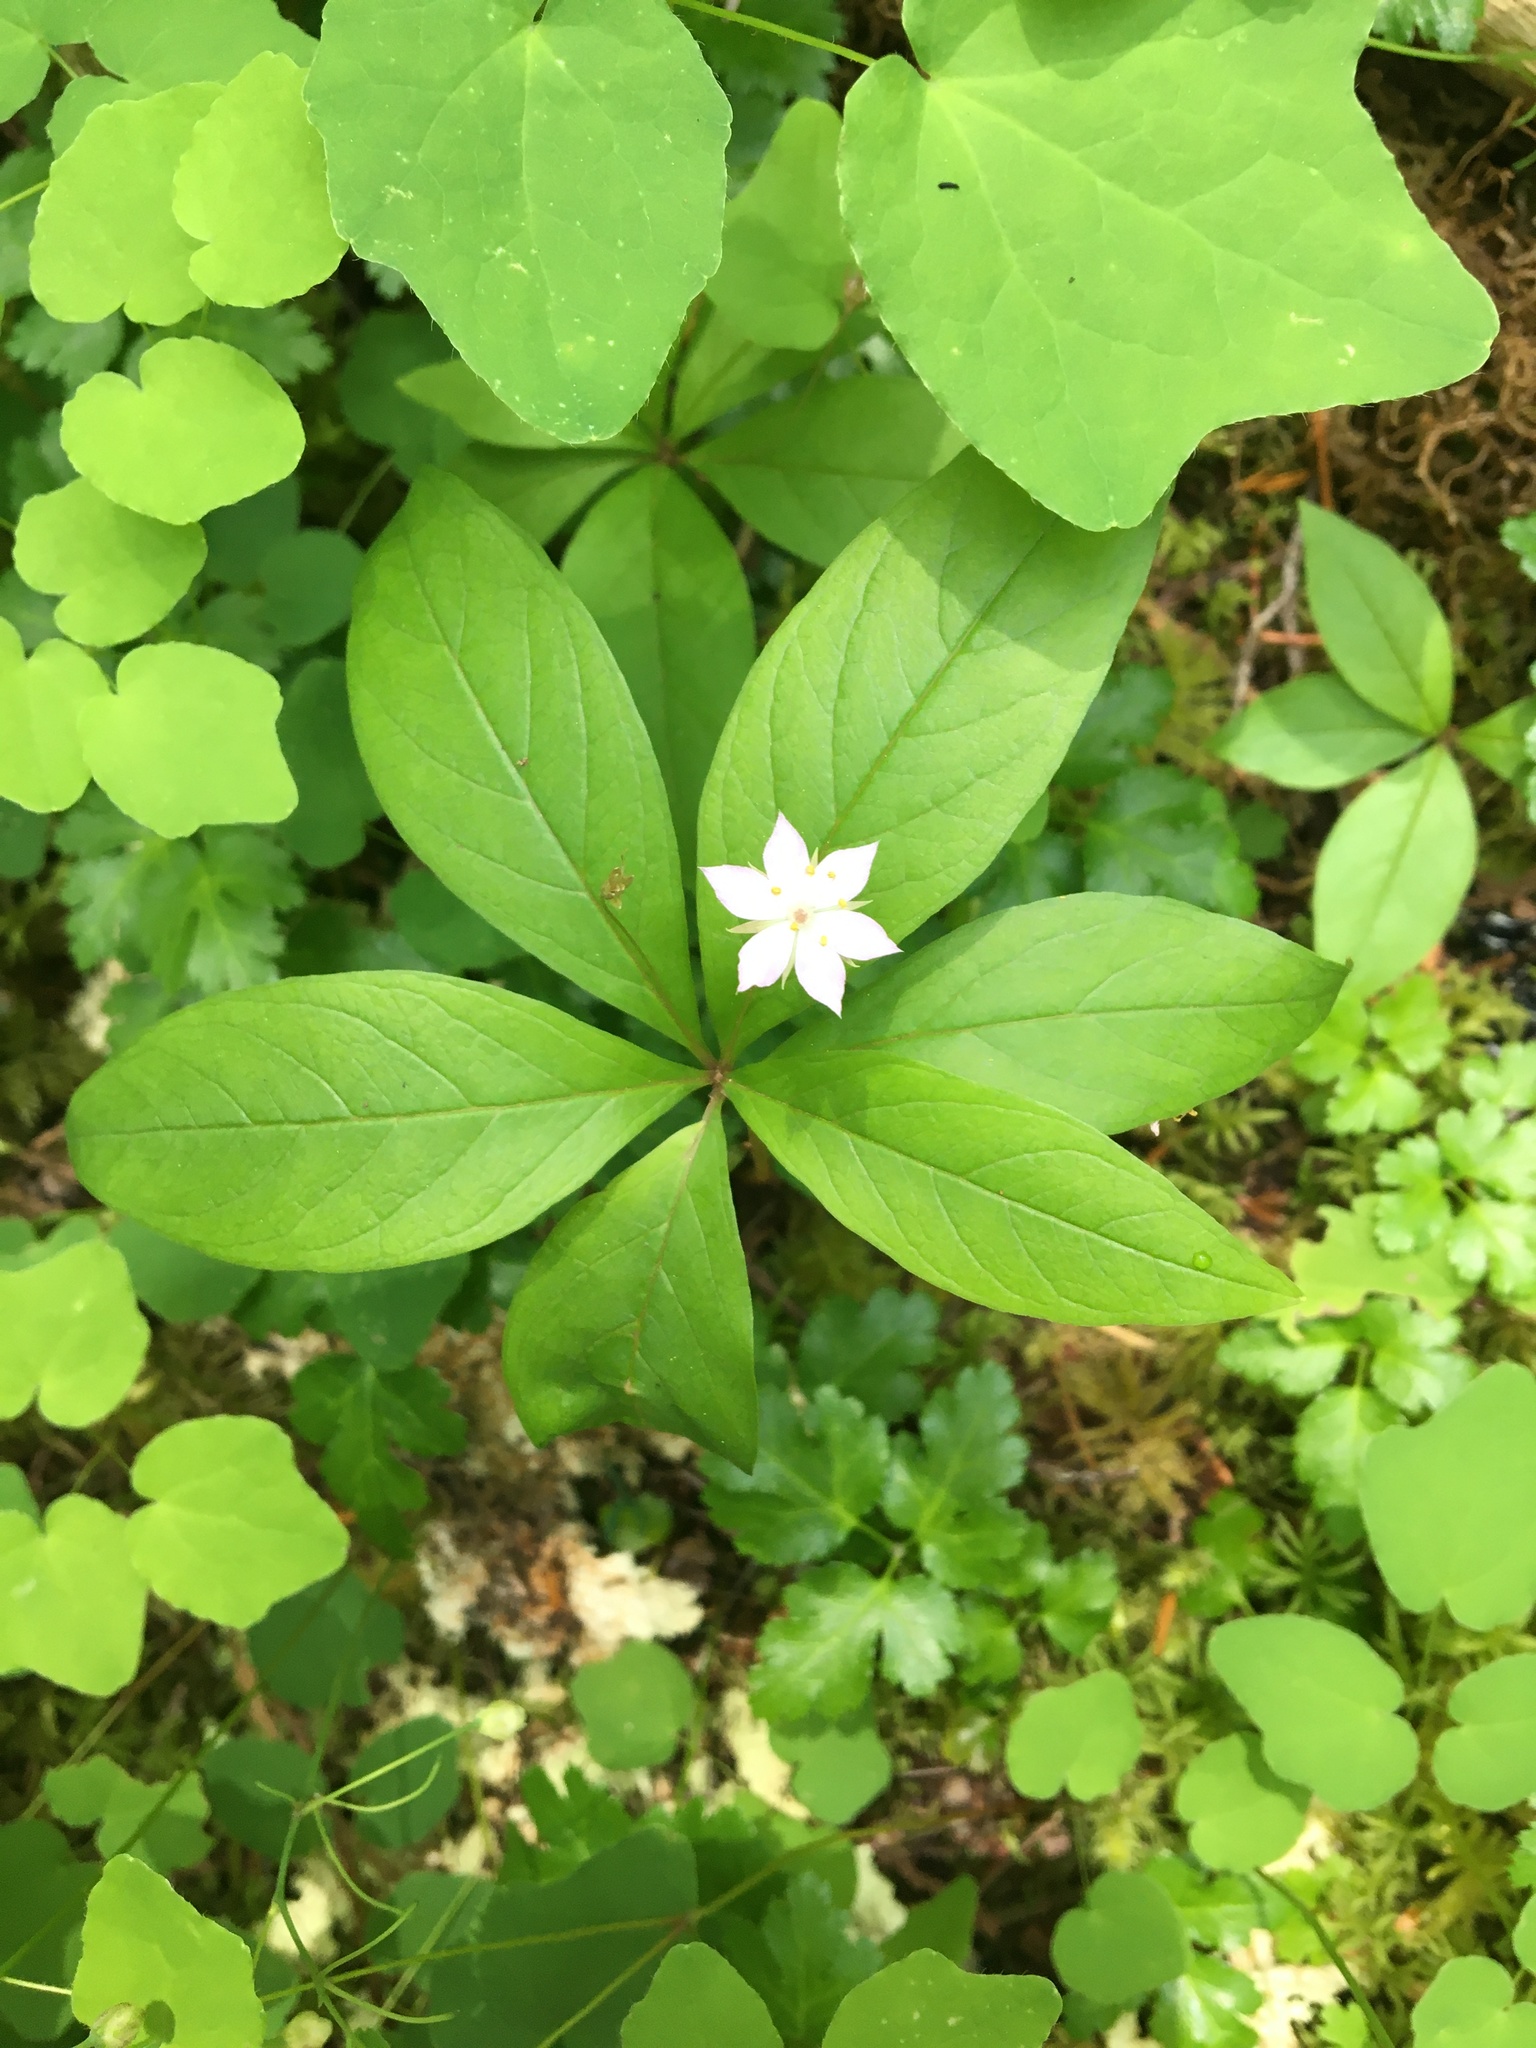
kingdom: Plantae
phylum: Tracheophyta
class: Magnoliopsida
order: Ericales
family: Primulaceae
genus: Lysimachia
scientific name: Lysimachia latifolia
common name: Pacific starflower
